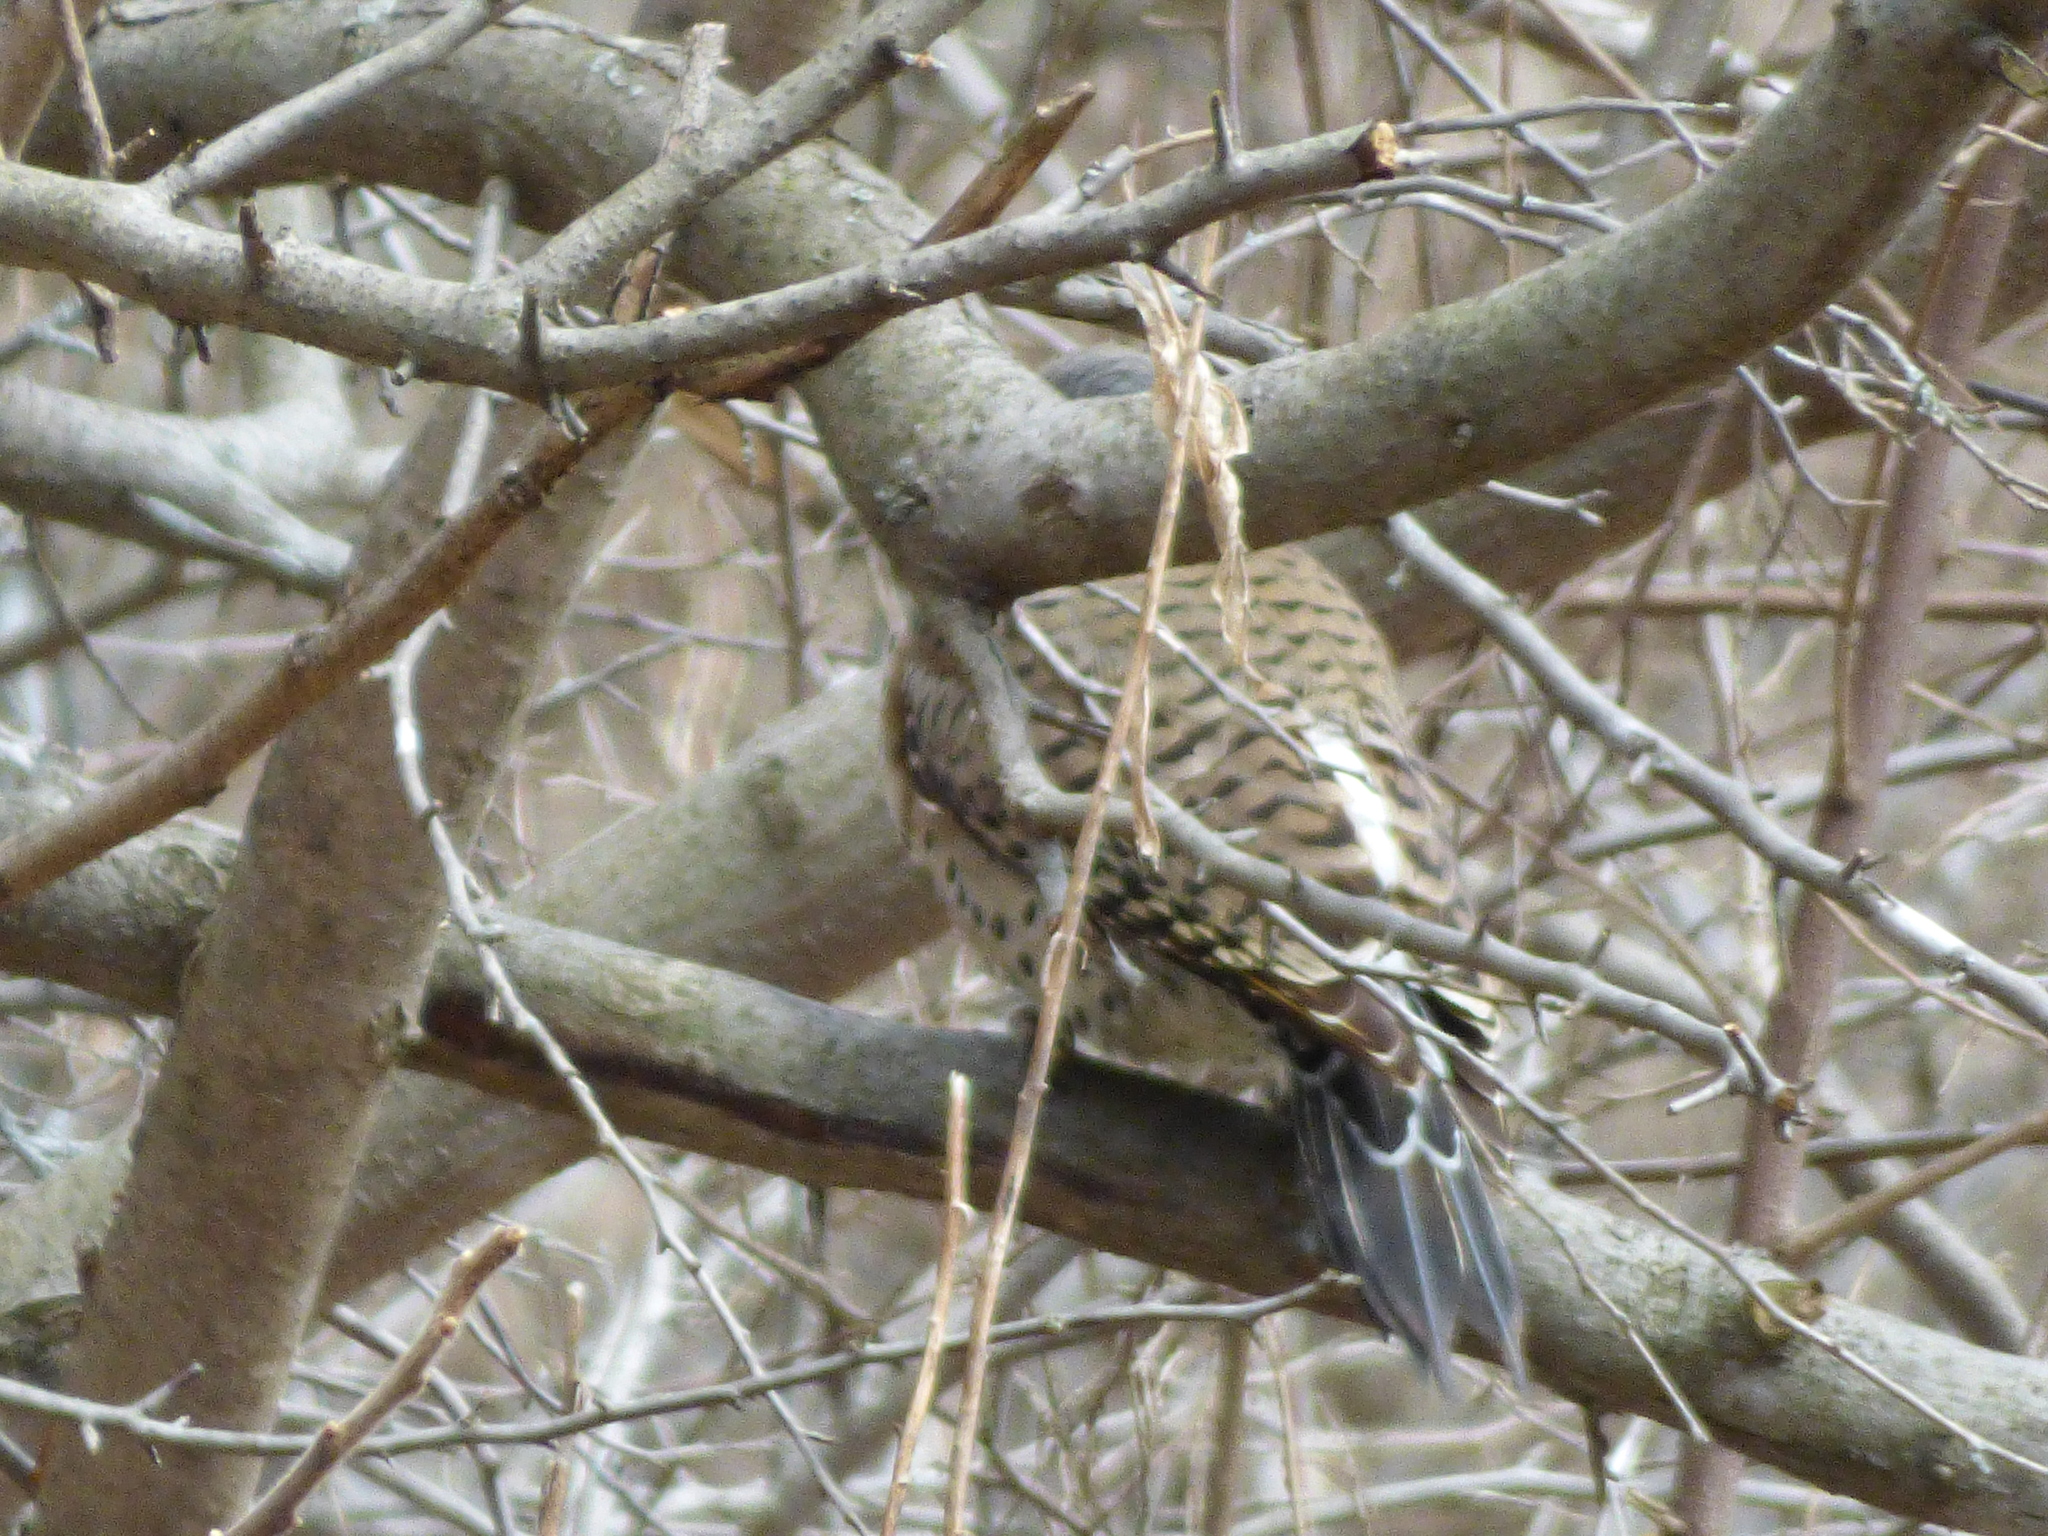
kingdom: Animalia
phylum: Chordata
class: Aves
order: Piciformes
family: Picidae
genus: Colaptes
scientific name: Colaptes auratus
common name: Northern flicker
